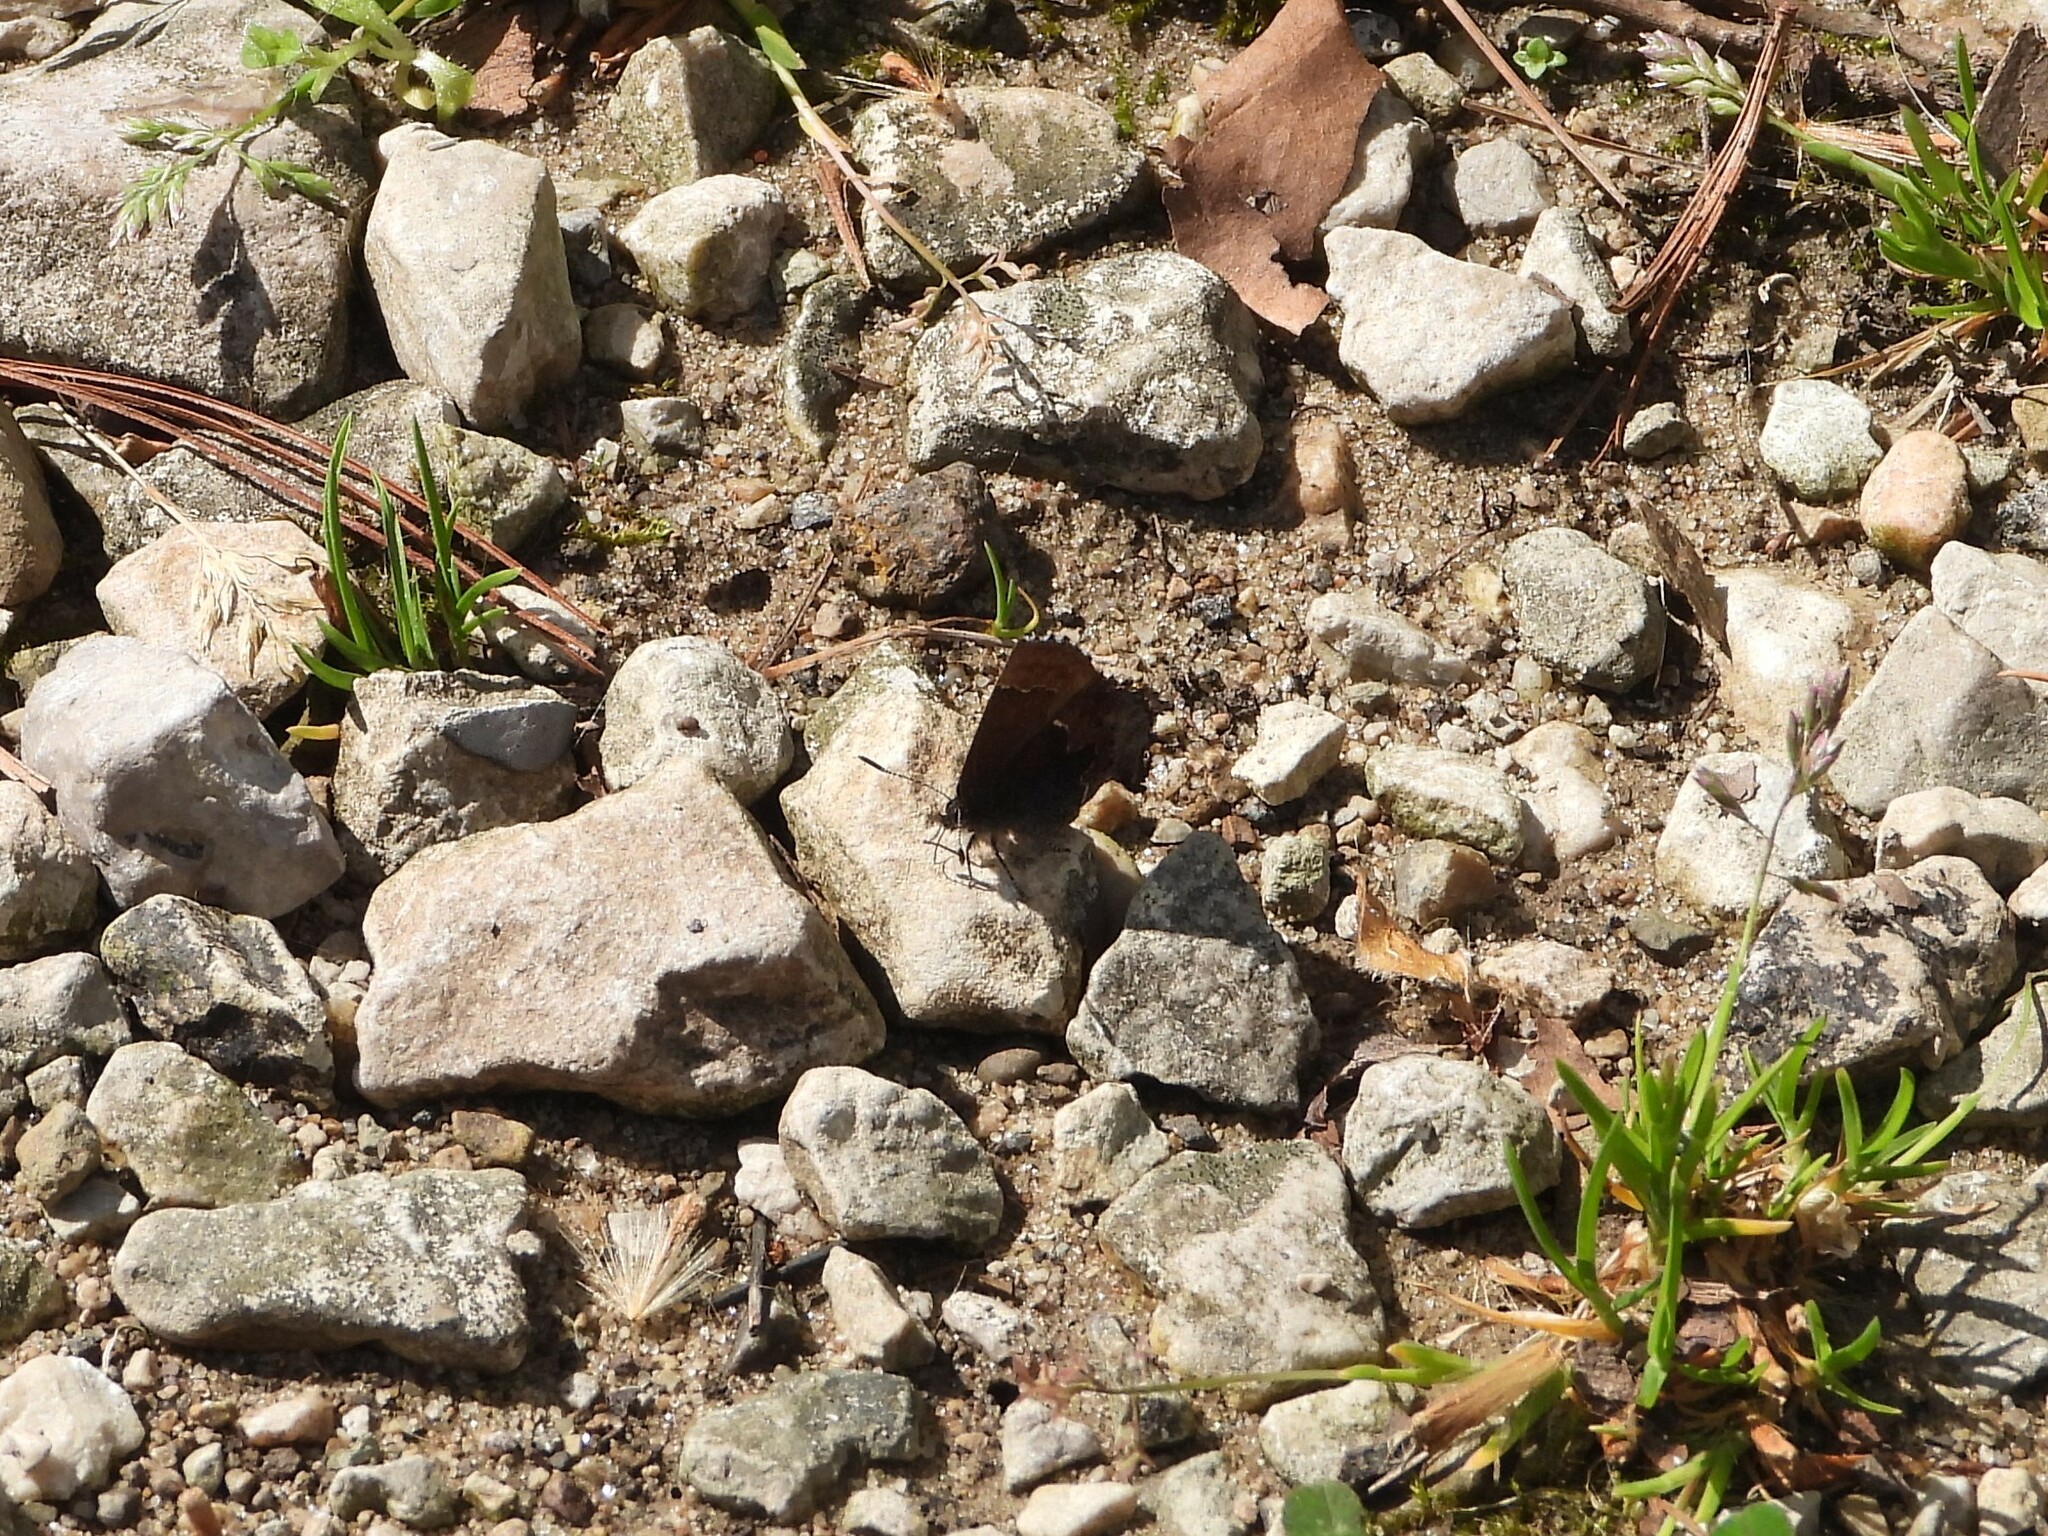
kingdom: Animalia
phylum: Arthropoda
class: Insecta
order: Lepidoptera
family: Lycaenidae
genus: Incisalia
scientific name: Incisalia henrici
